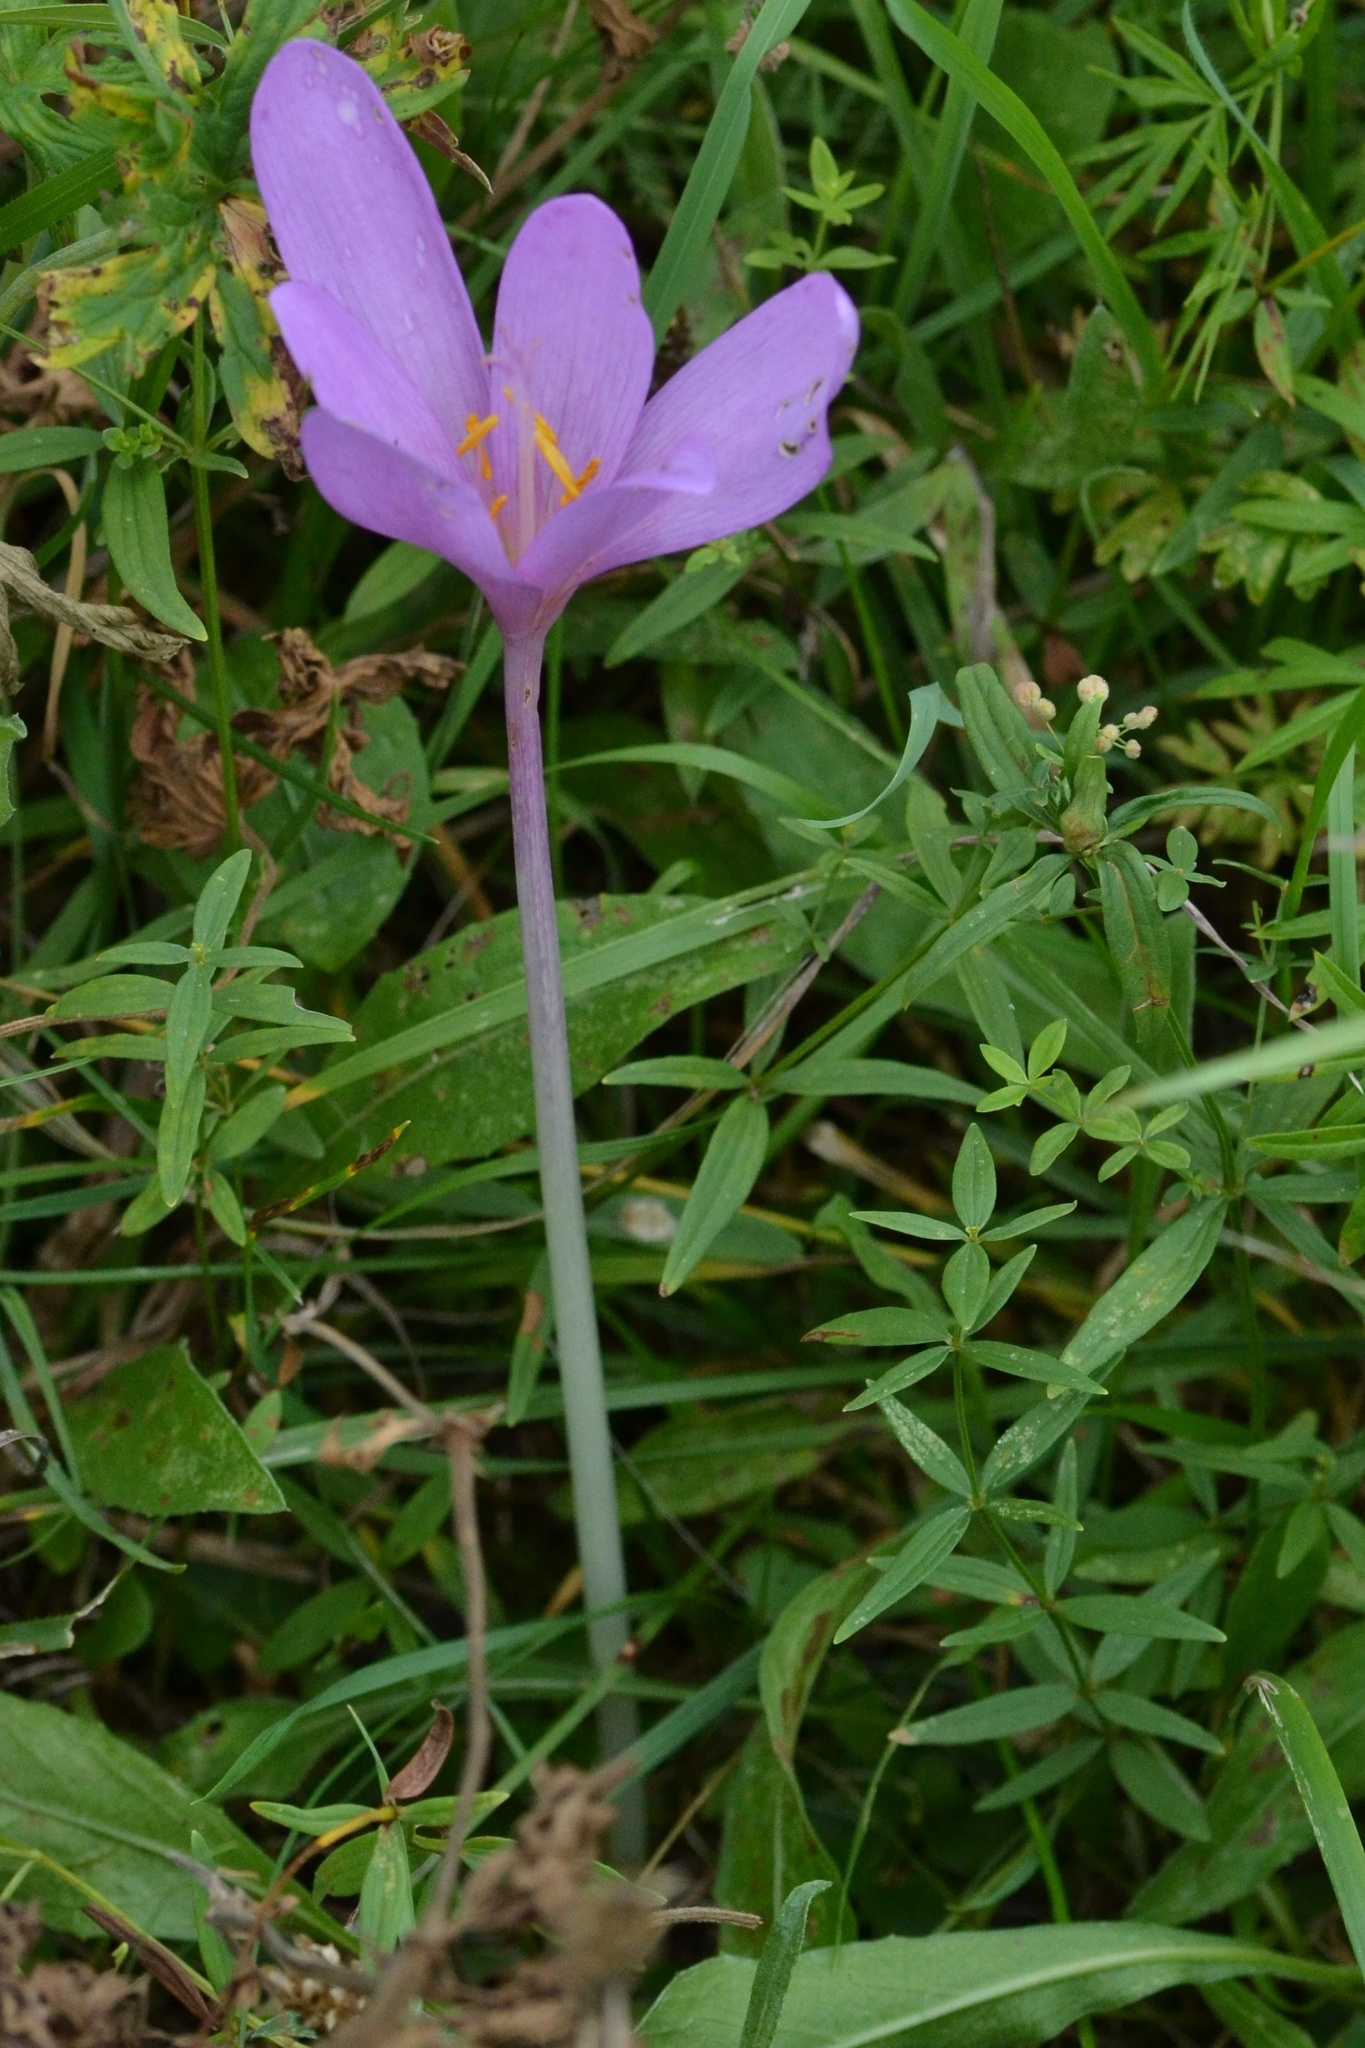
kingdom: Plantae
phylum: Tracheophyta
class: Liliopsida
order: Liliales
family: Colchicaceae
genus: Colchicum
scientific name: Colchicum autumnale
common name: Autumn crocus
